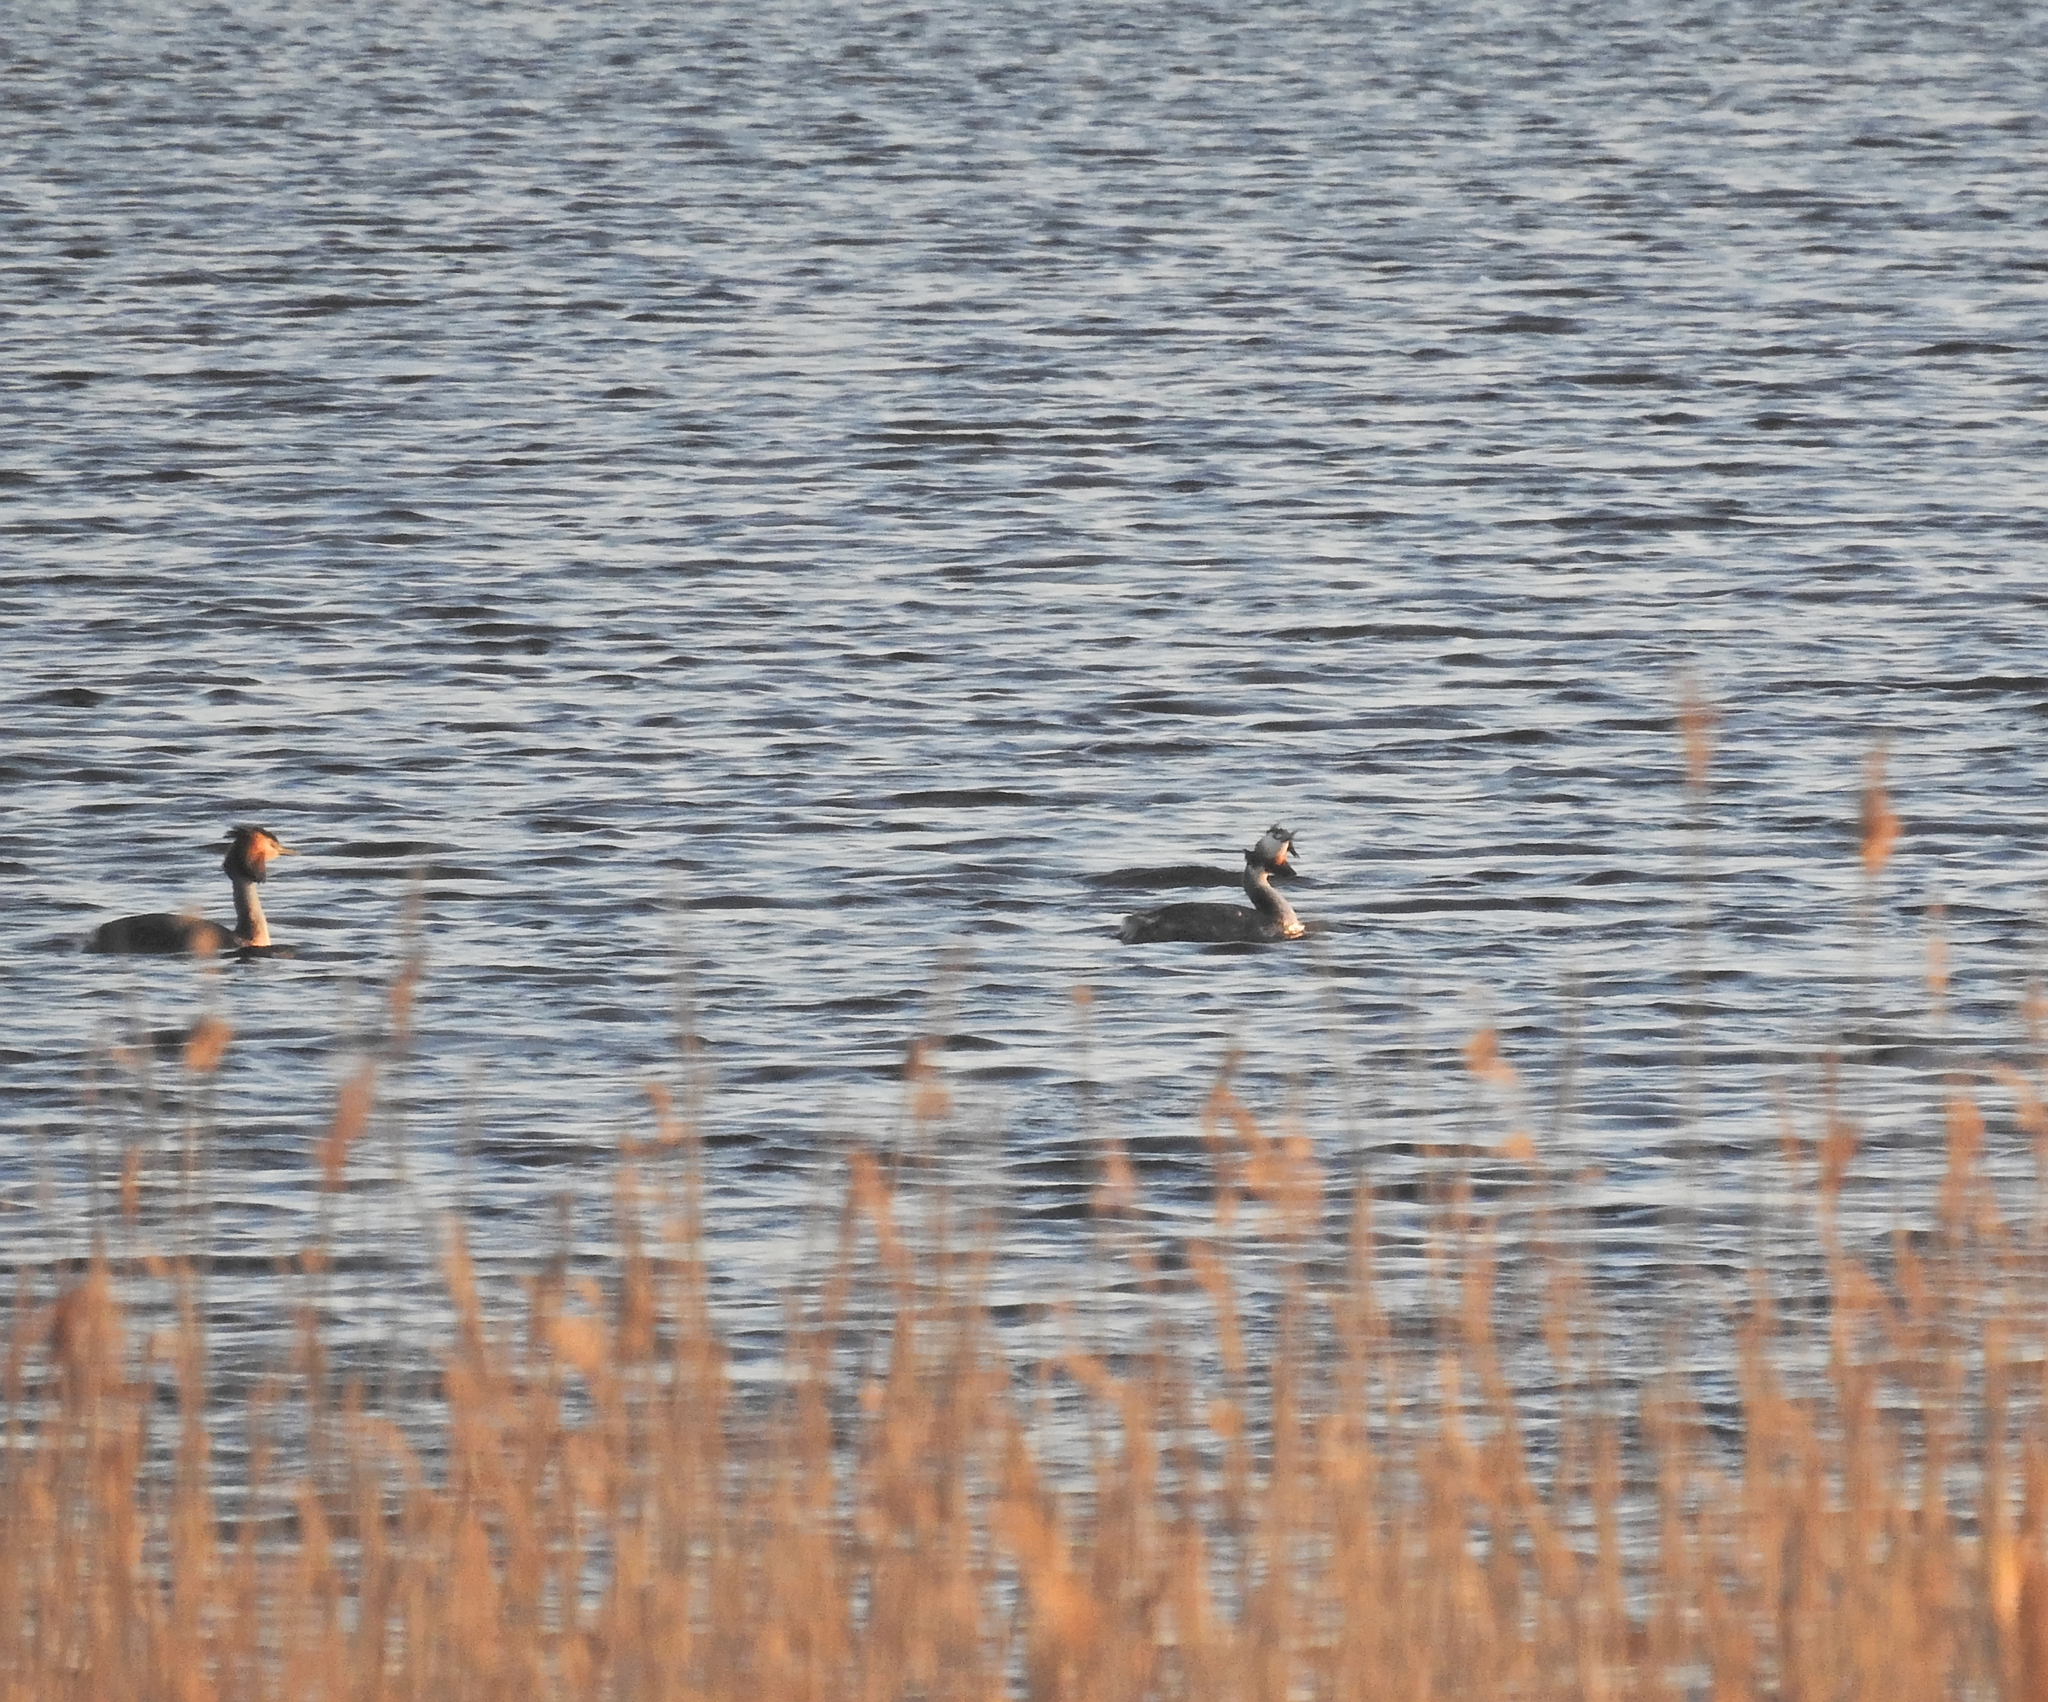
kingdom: Animalia
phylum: Chordata
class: Aves
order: Podicipediformes
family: Podicipedidae
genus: Podiceps
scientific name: Podiceps cristatus
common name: Great crested grebe
